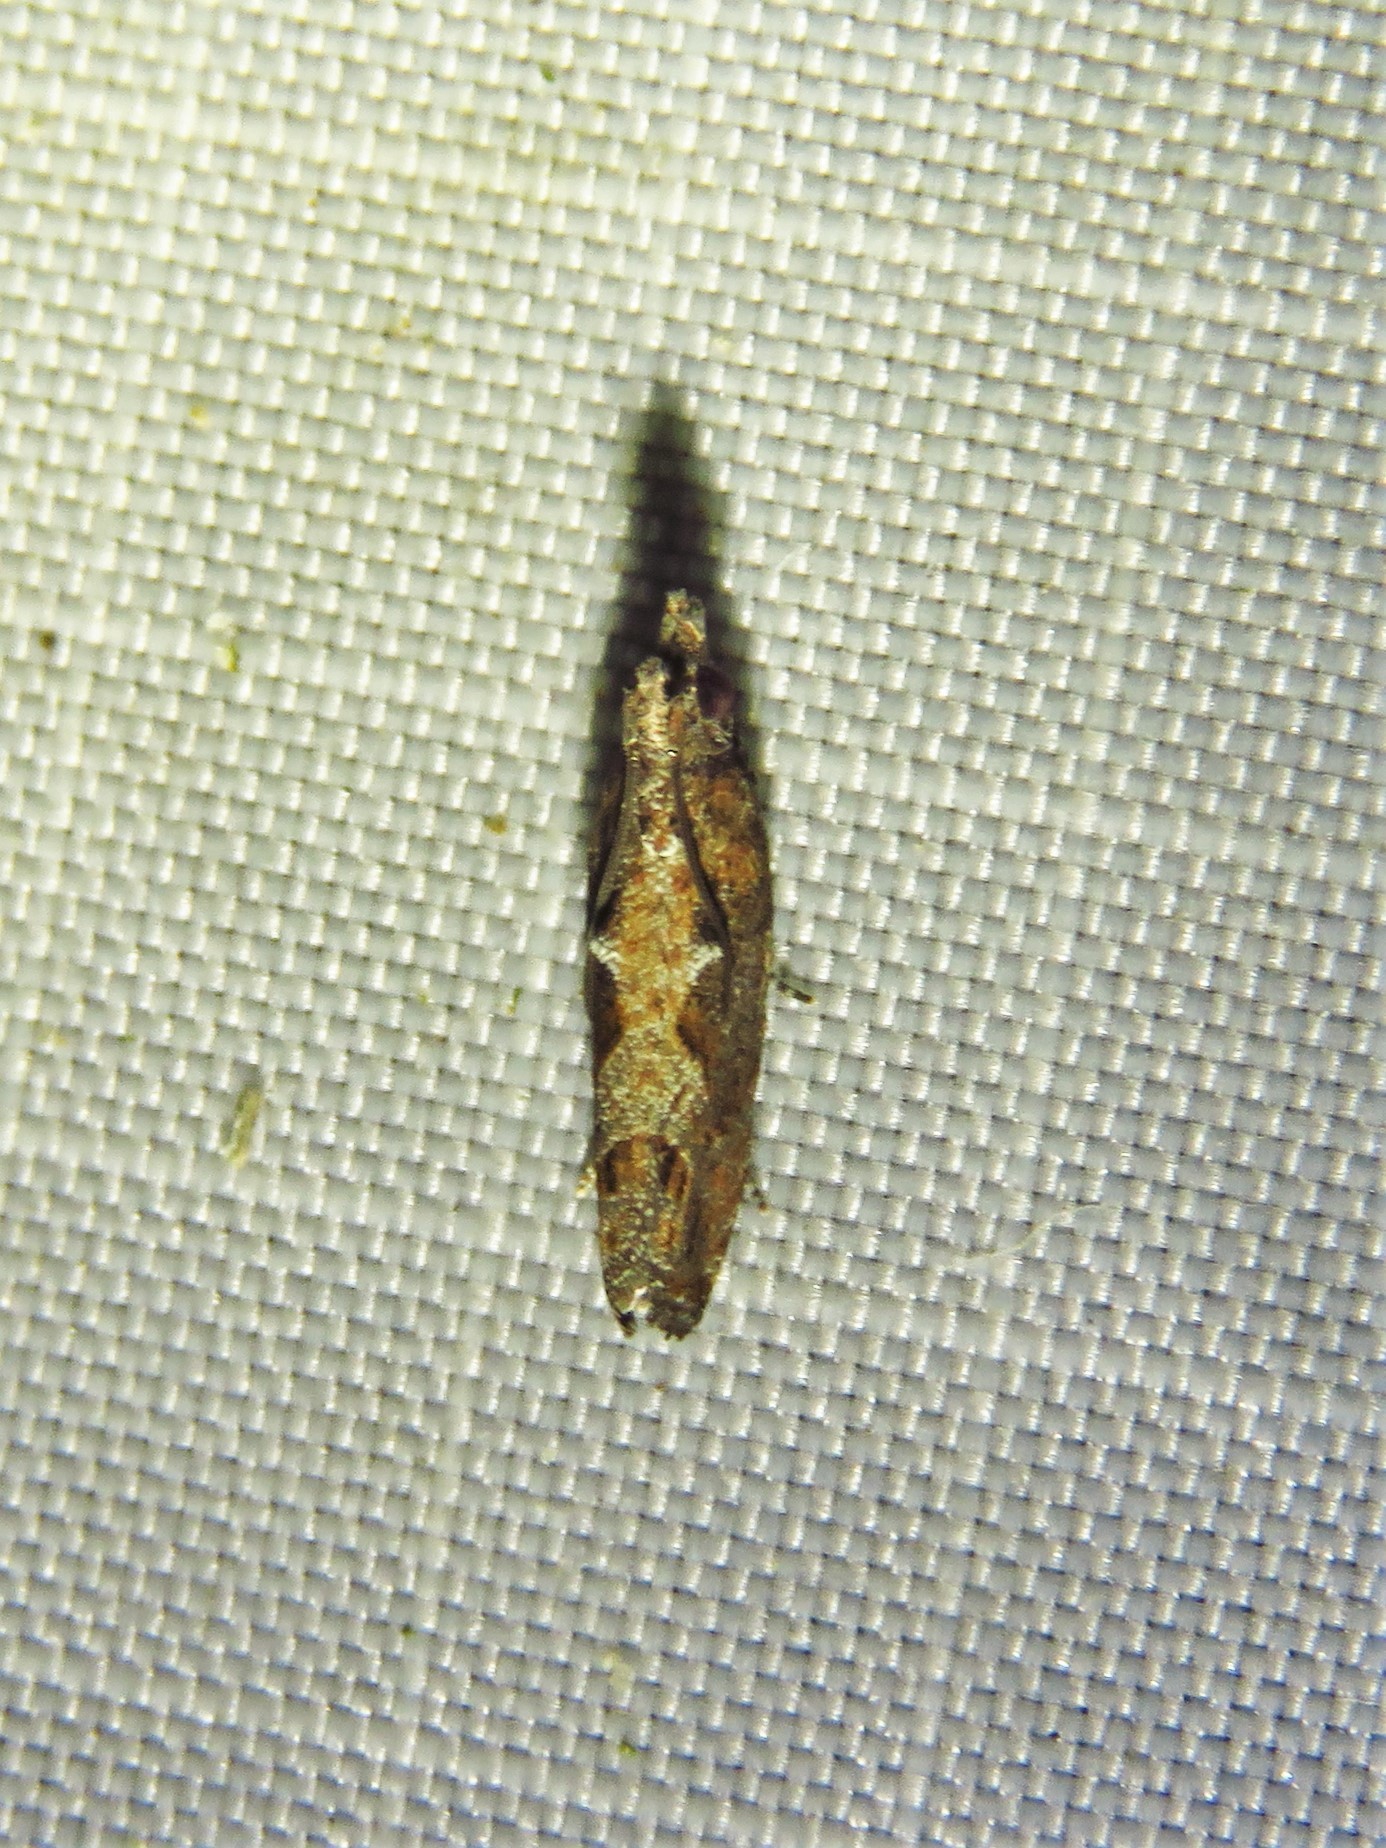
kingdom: Animalia
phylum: Arthropoda
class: Insecta
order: Lepidoptera
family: Tortricidae
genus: Strepsicrates
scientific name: Strepsicrates smithiana
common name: Bayberry leaftier moth
